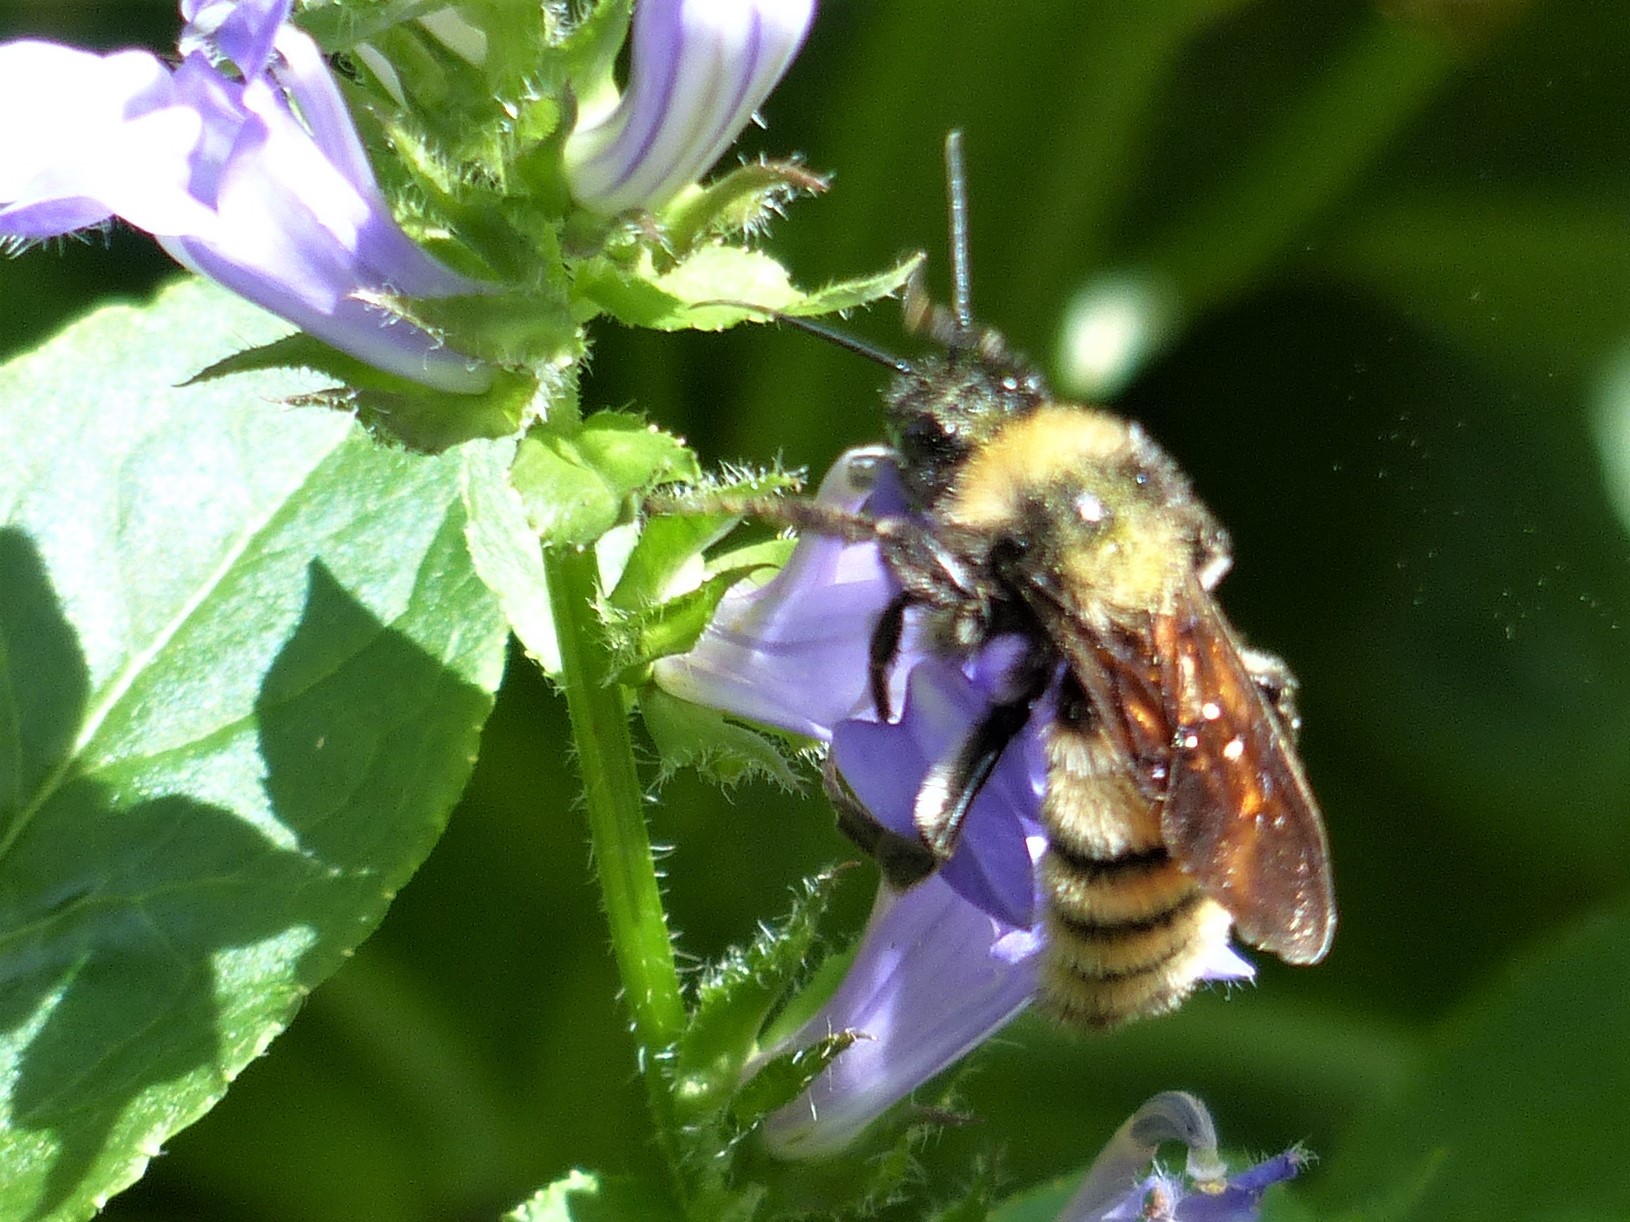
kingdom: Animalia
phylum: Arthropoda
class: Insecta
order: Hymenoptera
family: Apidae
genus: Bombus
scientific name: Bombus pensylvanicus
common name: Bumble bee
